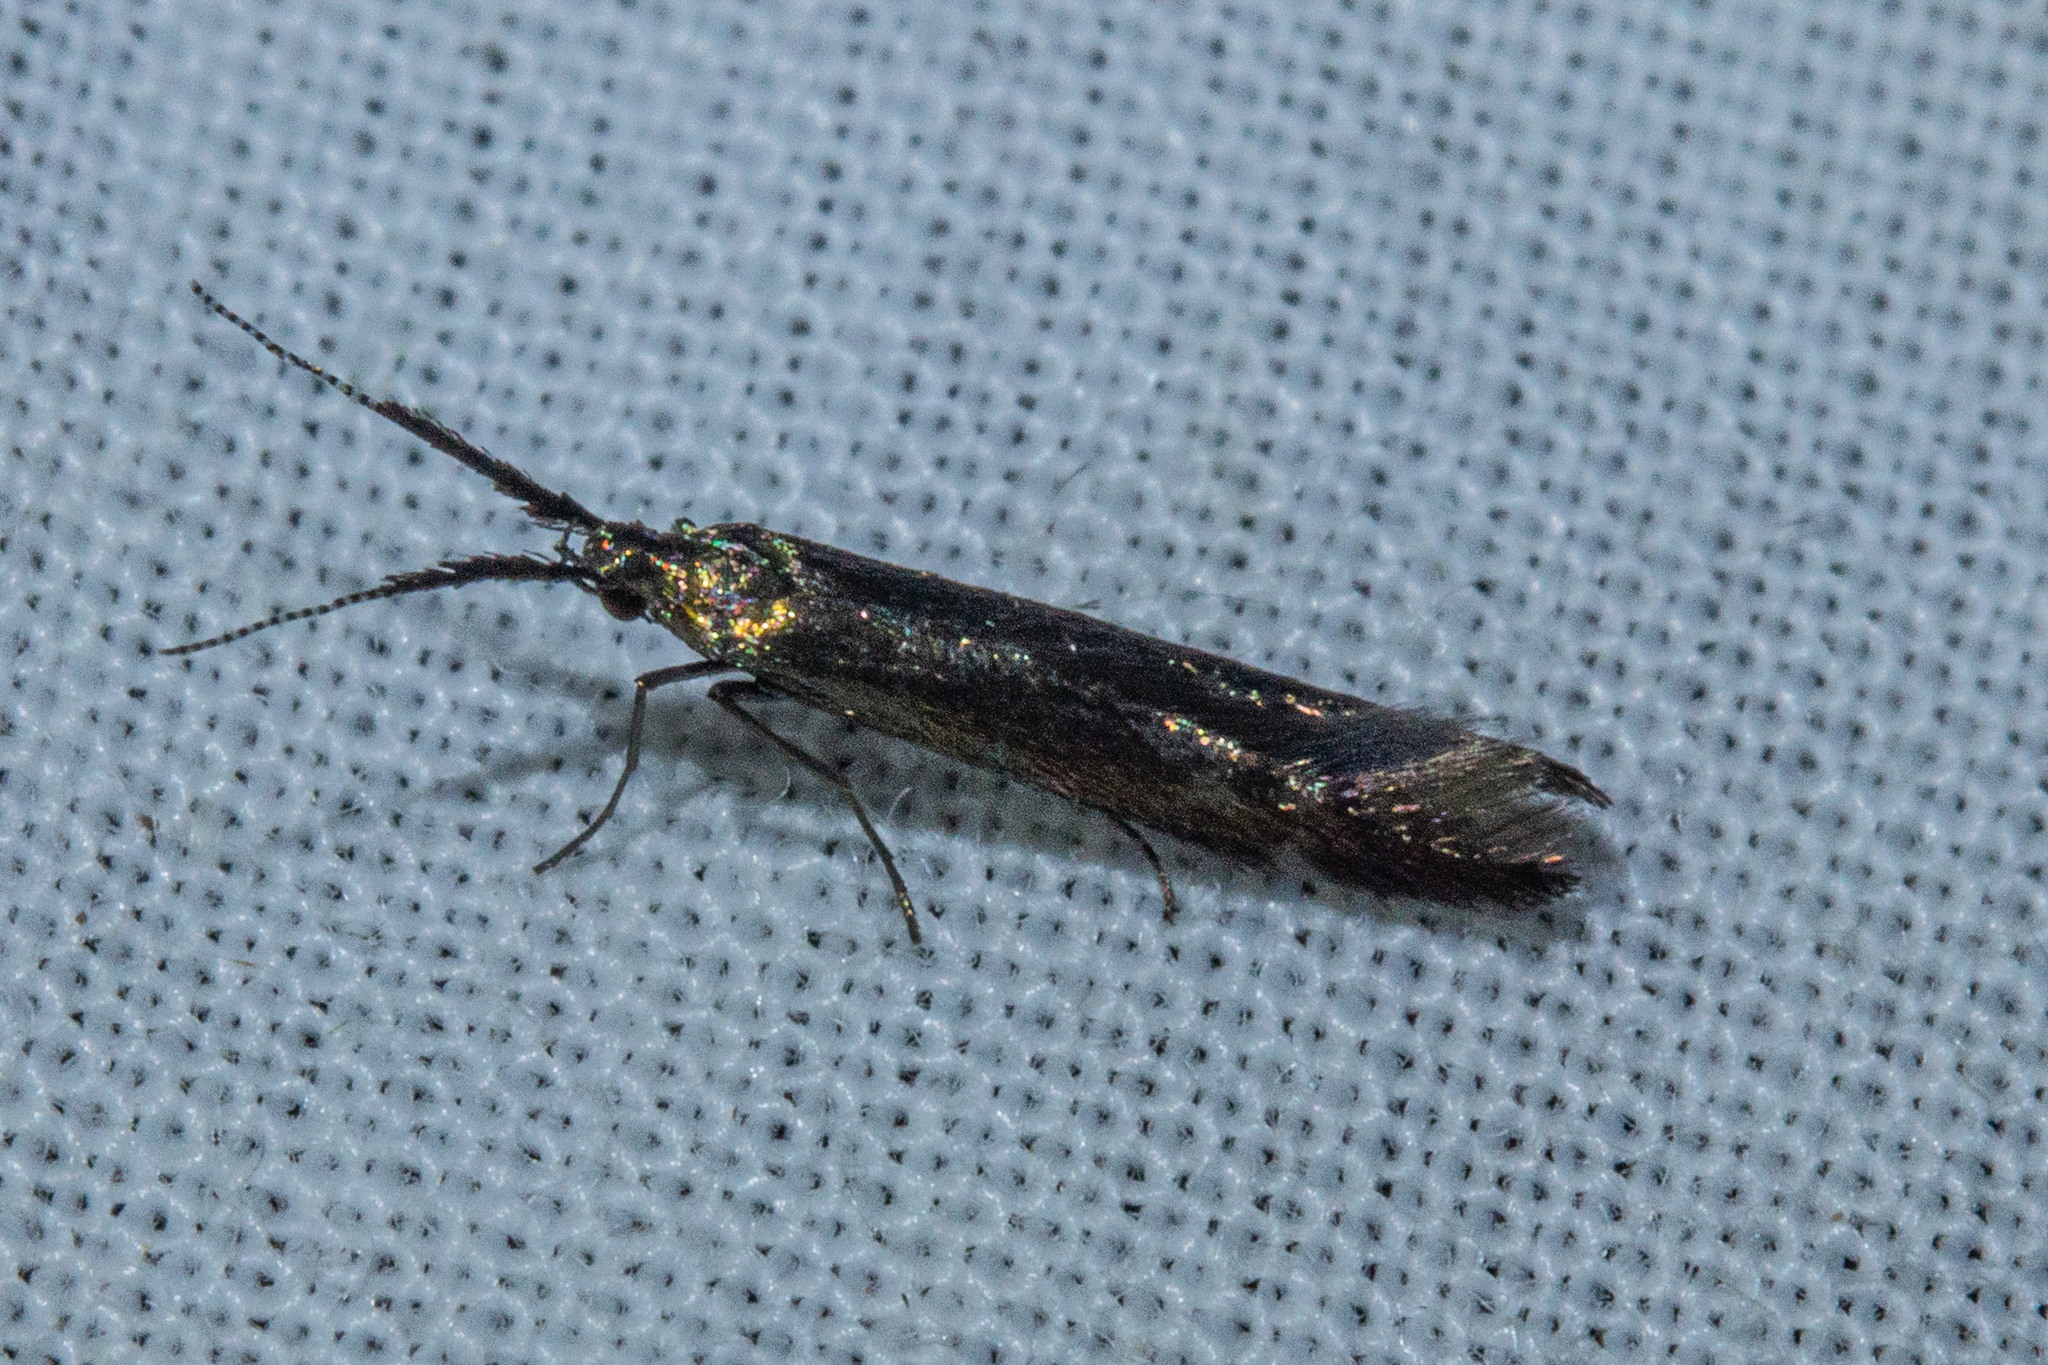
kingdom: Animalia
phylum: Arthropoda
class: Insecta
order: Lepidoptera
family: Coleophoridae
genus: Coleophora
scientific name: Coleophora mayrella
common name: Meadow case-bearer
